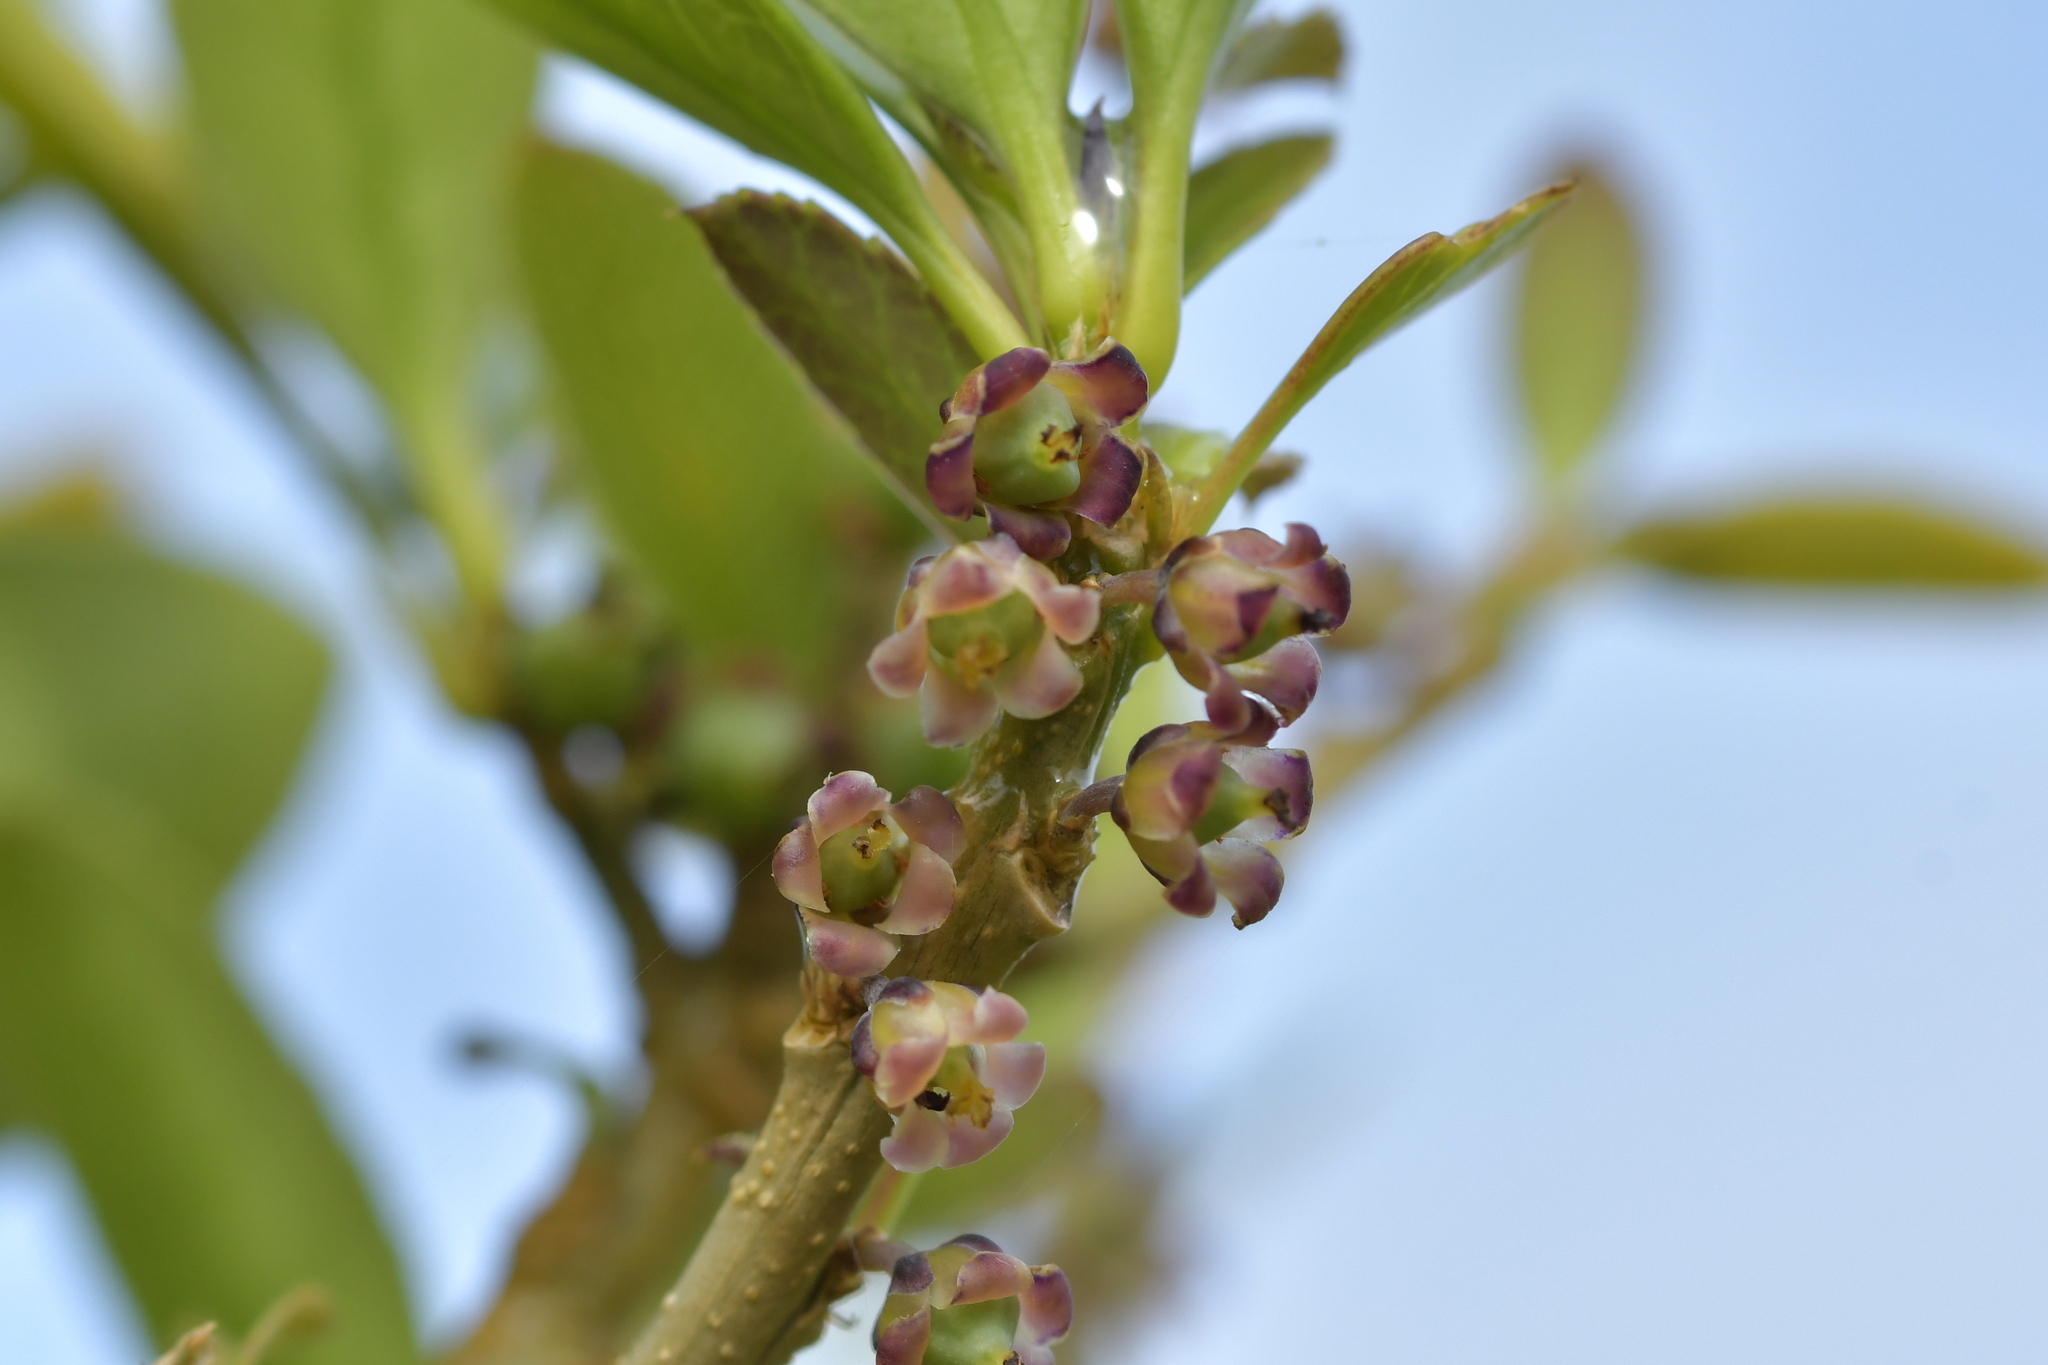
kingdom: Plantae
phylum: Tracheophyta
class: Magnoliopsida
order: Malpighiales
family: Violaceae
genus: Melicytus
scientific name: Melicytus chathamicus
